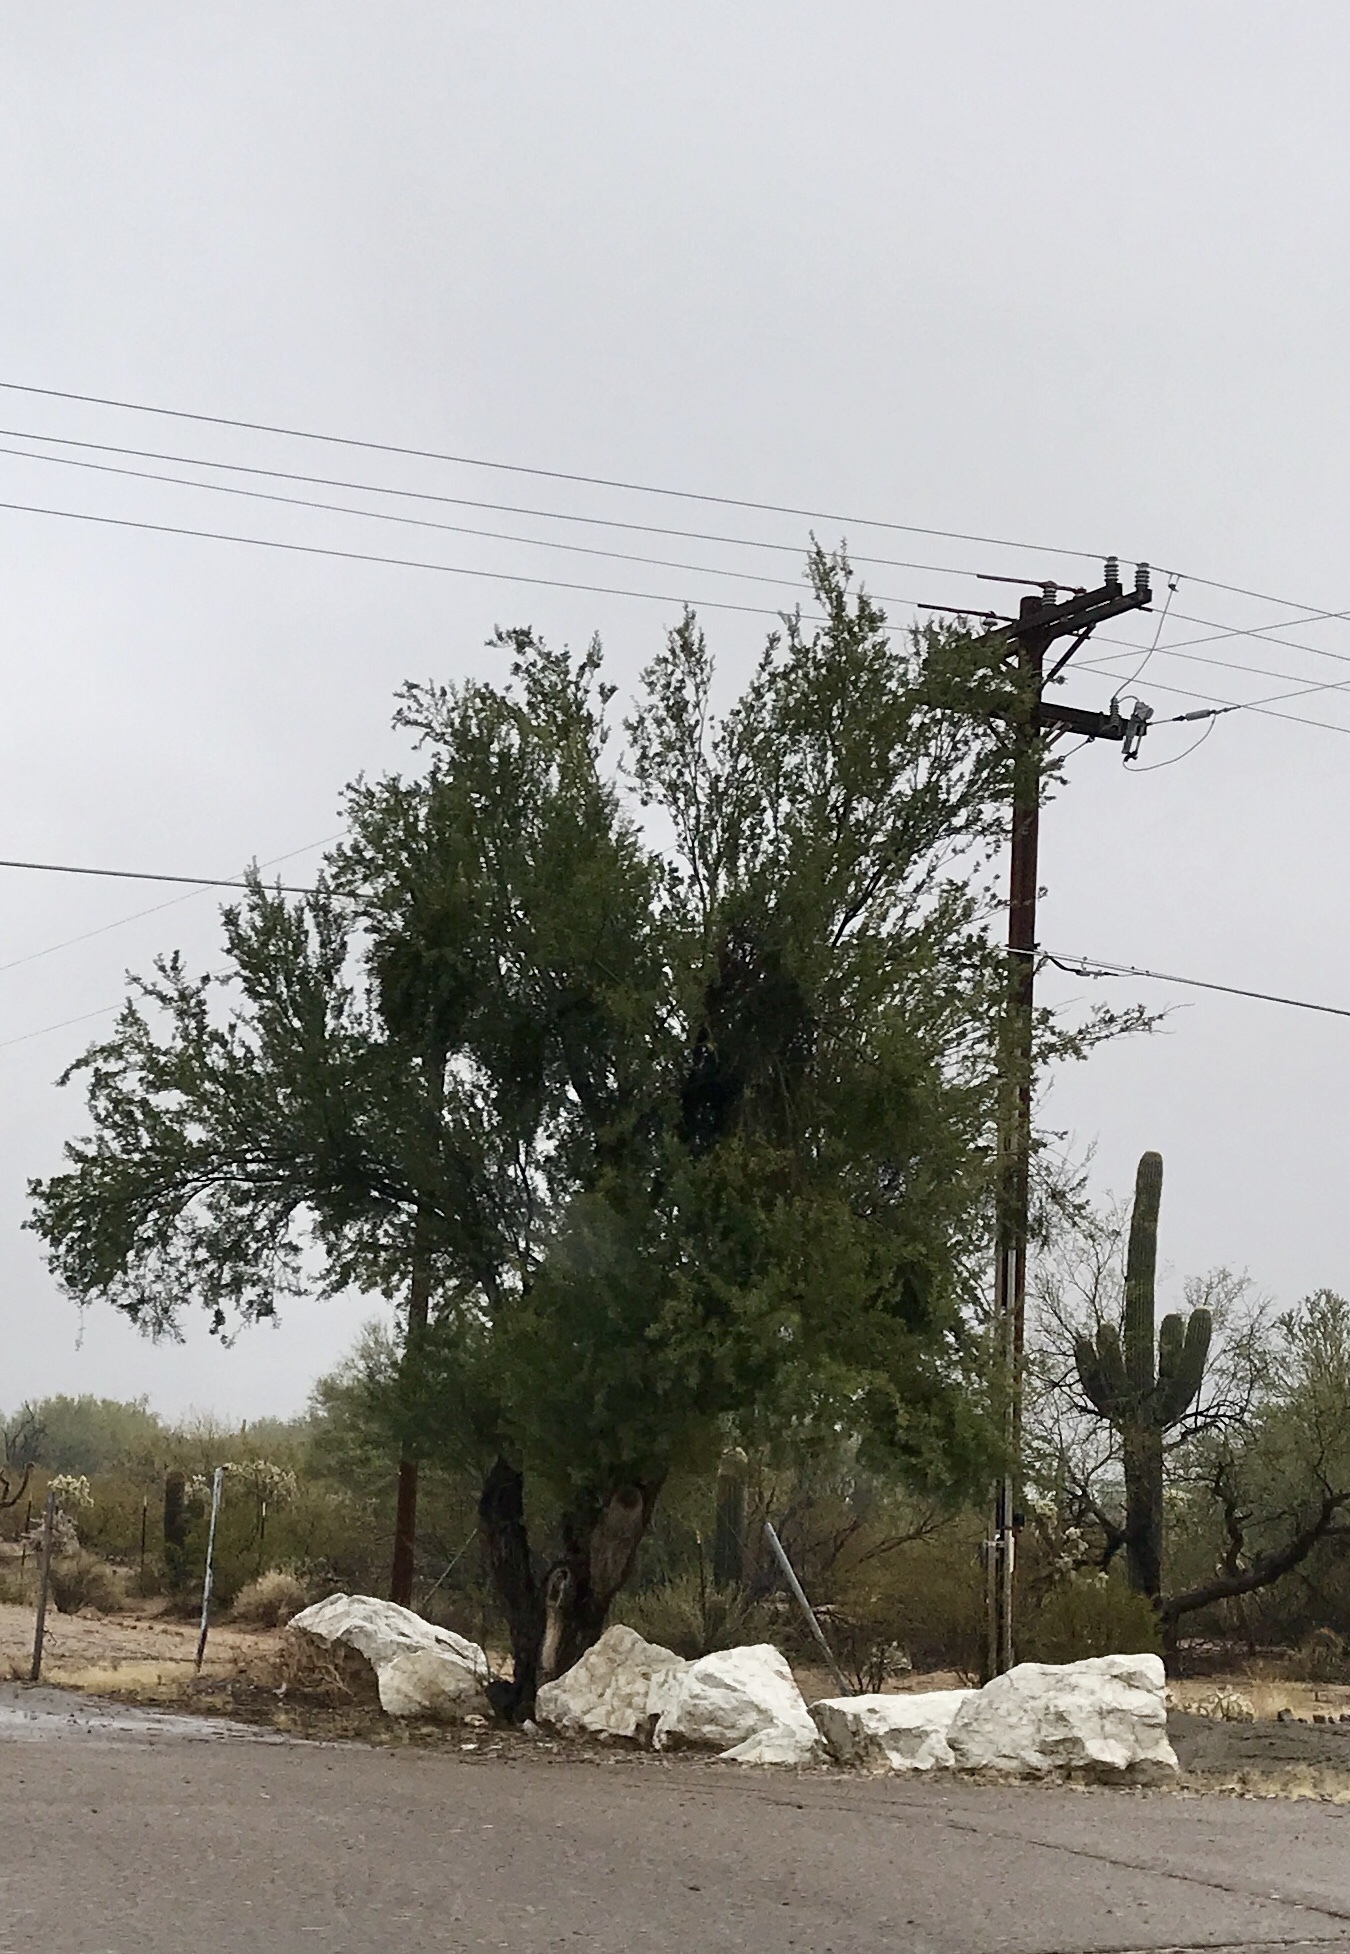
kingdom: Plantae
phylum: Tracheophyta
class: Magnoliopsida
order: Fabales
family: Fabaceae
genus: Olneya
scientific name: Olneya tesota
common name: Desert ironwood
